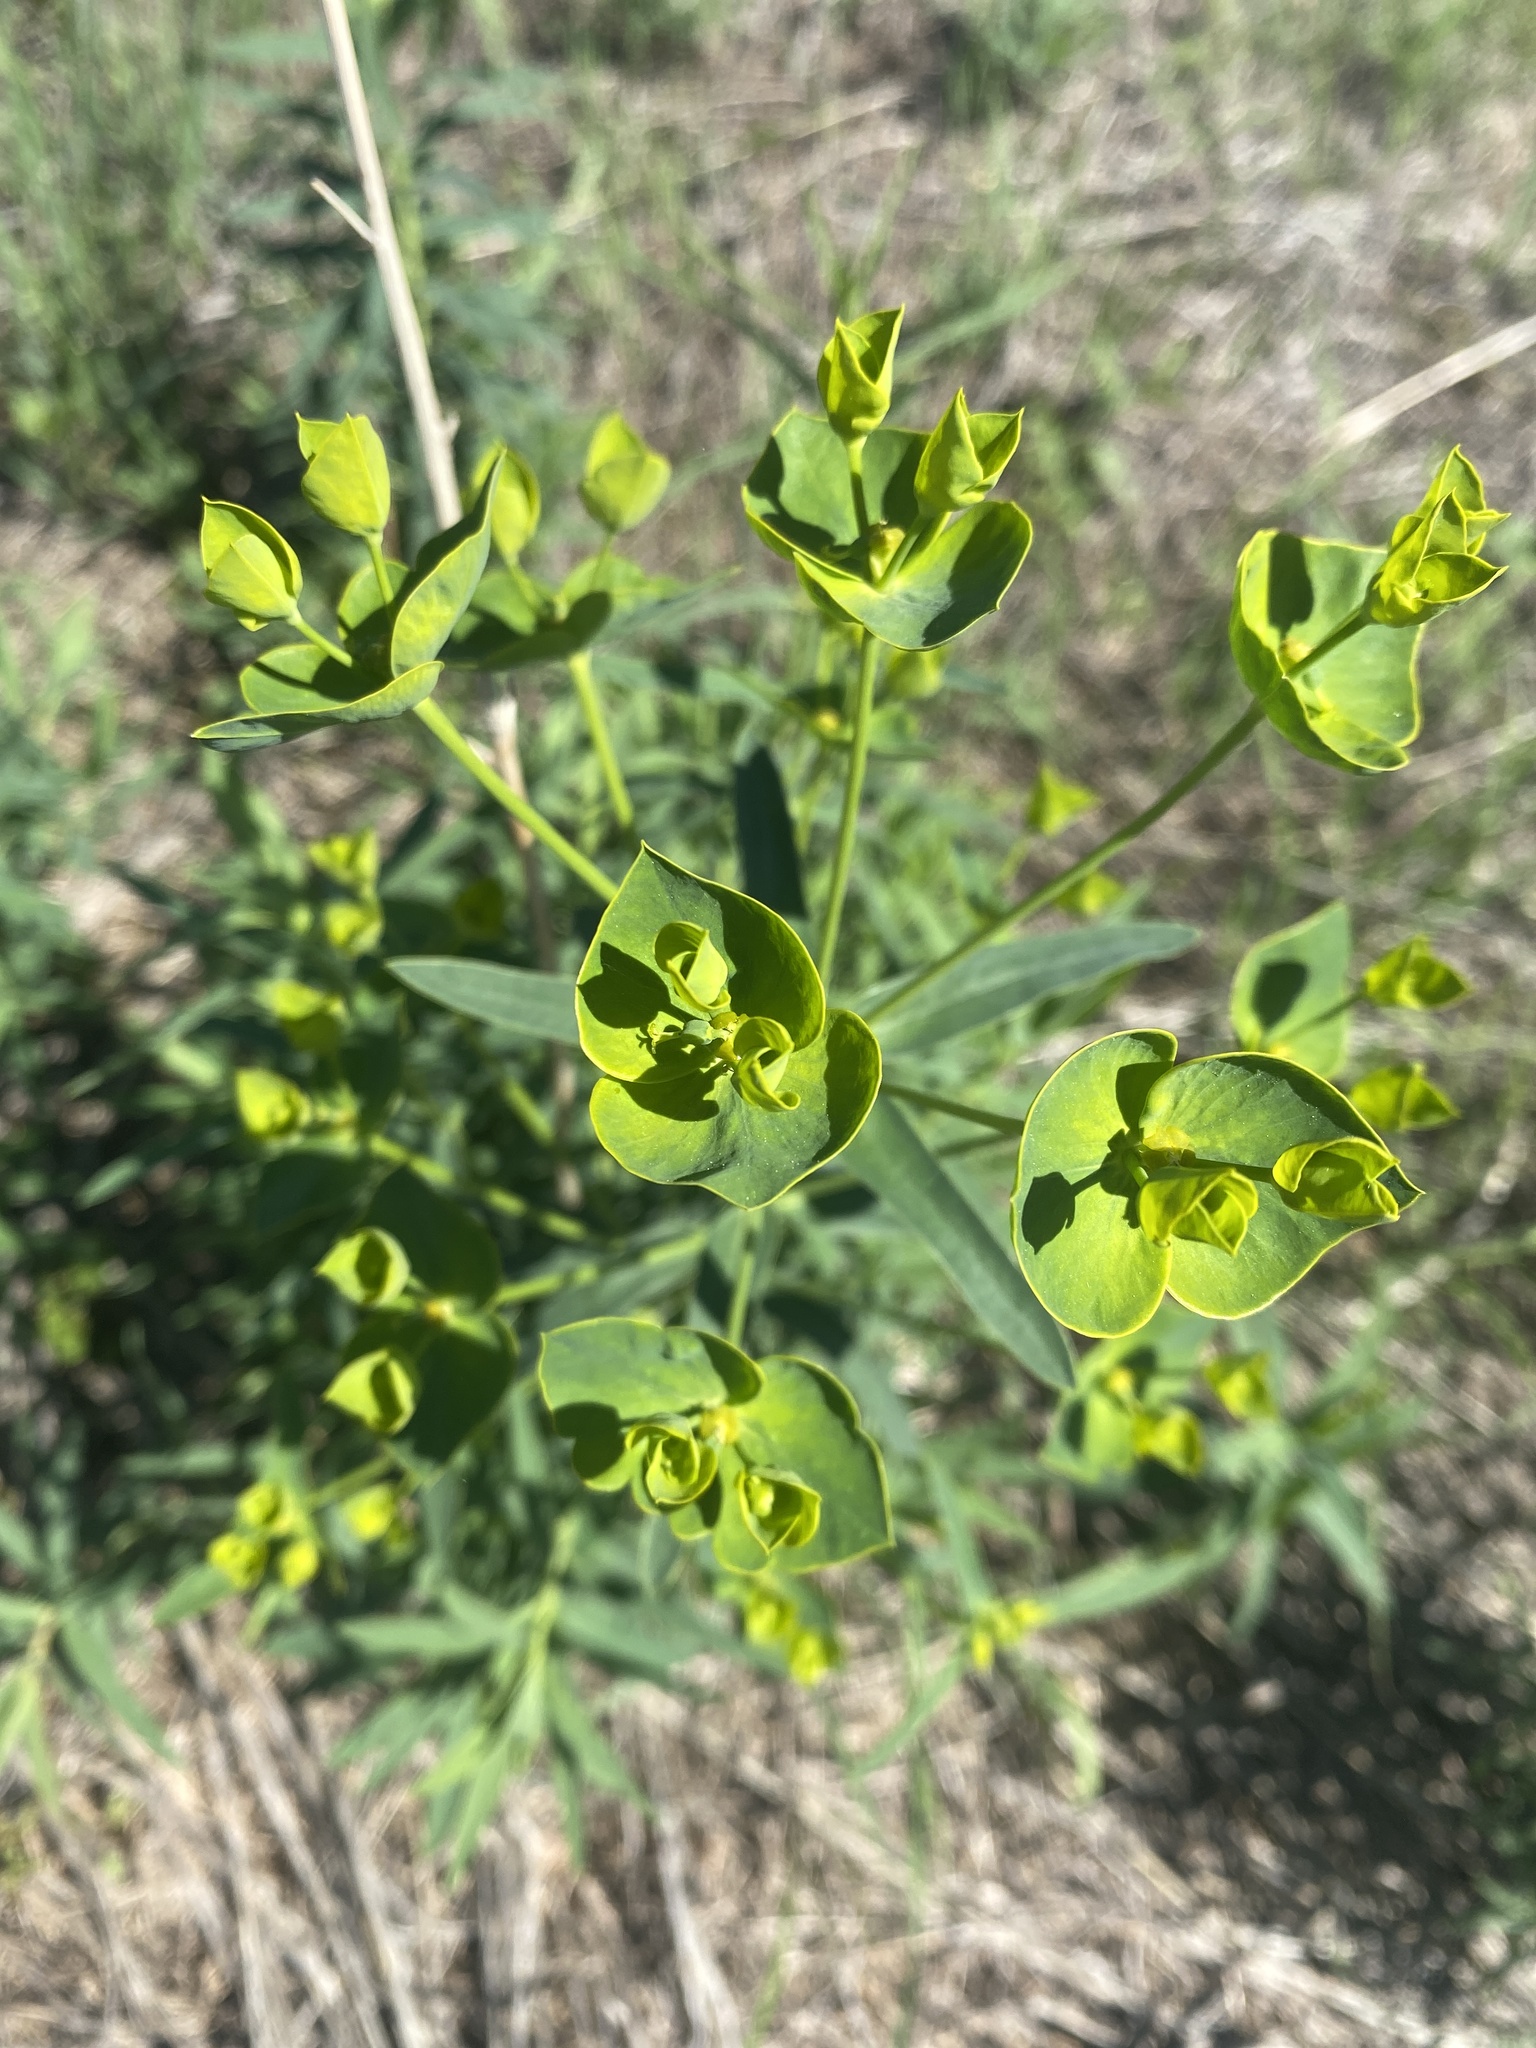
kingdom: Plantae
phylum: Tracheophyta
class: Magnoliopsida
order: Malpighiales
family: Euphorbiaceae
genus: Euphorbia
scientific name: Euphorbia virgata
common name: Leafy spurge
